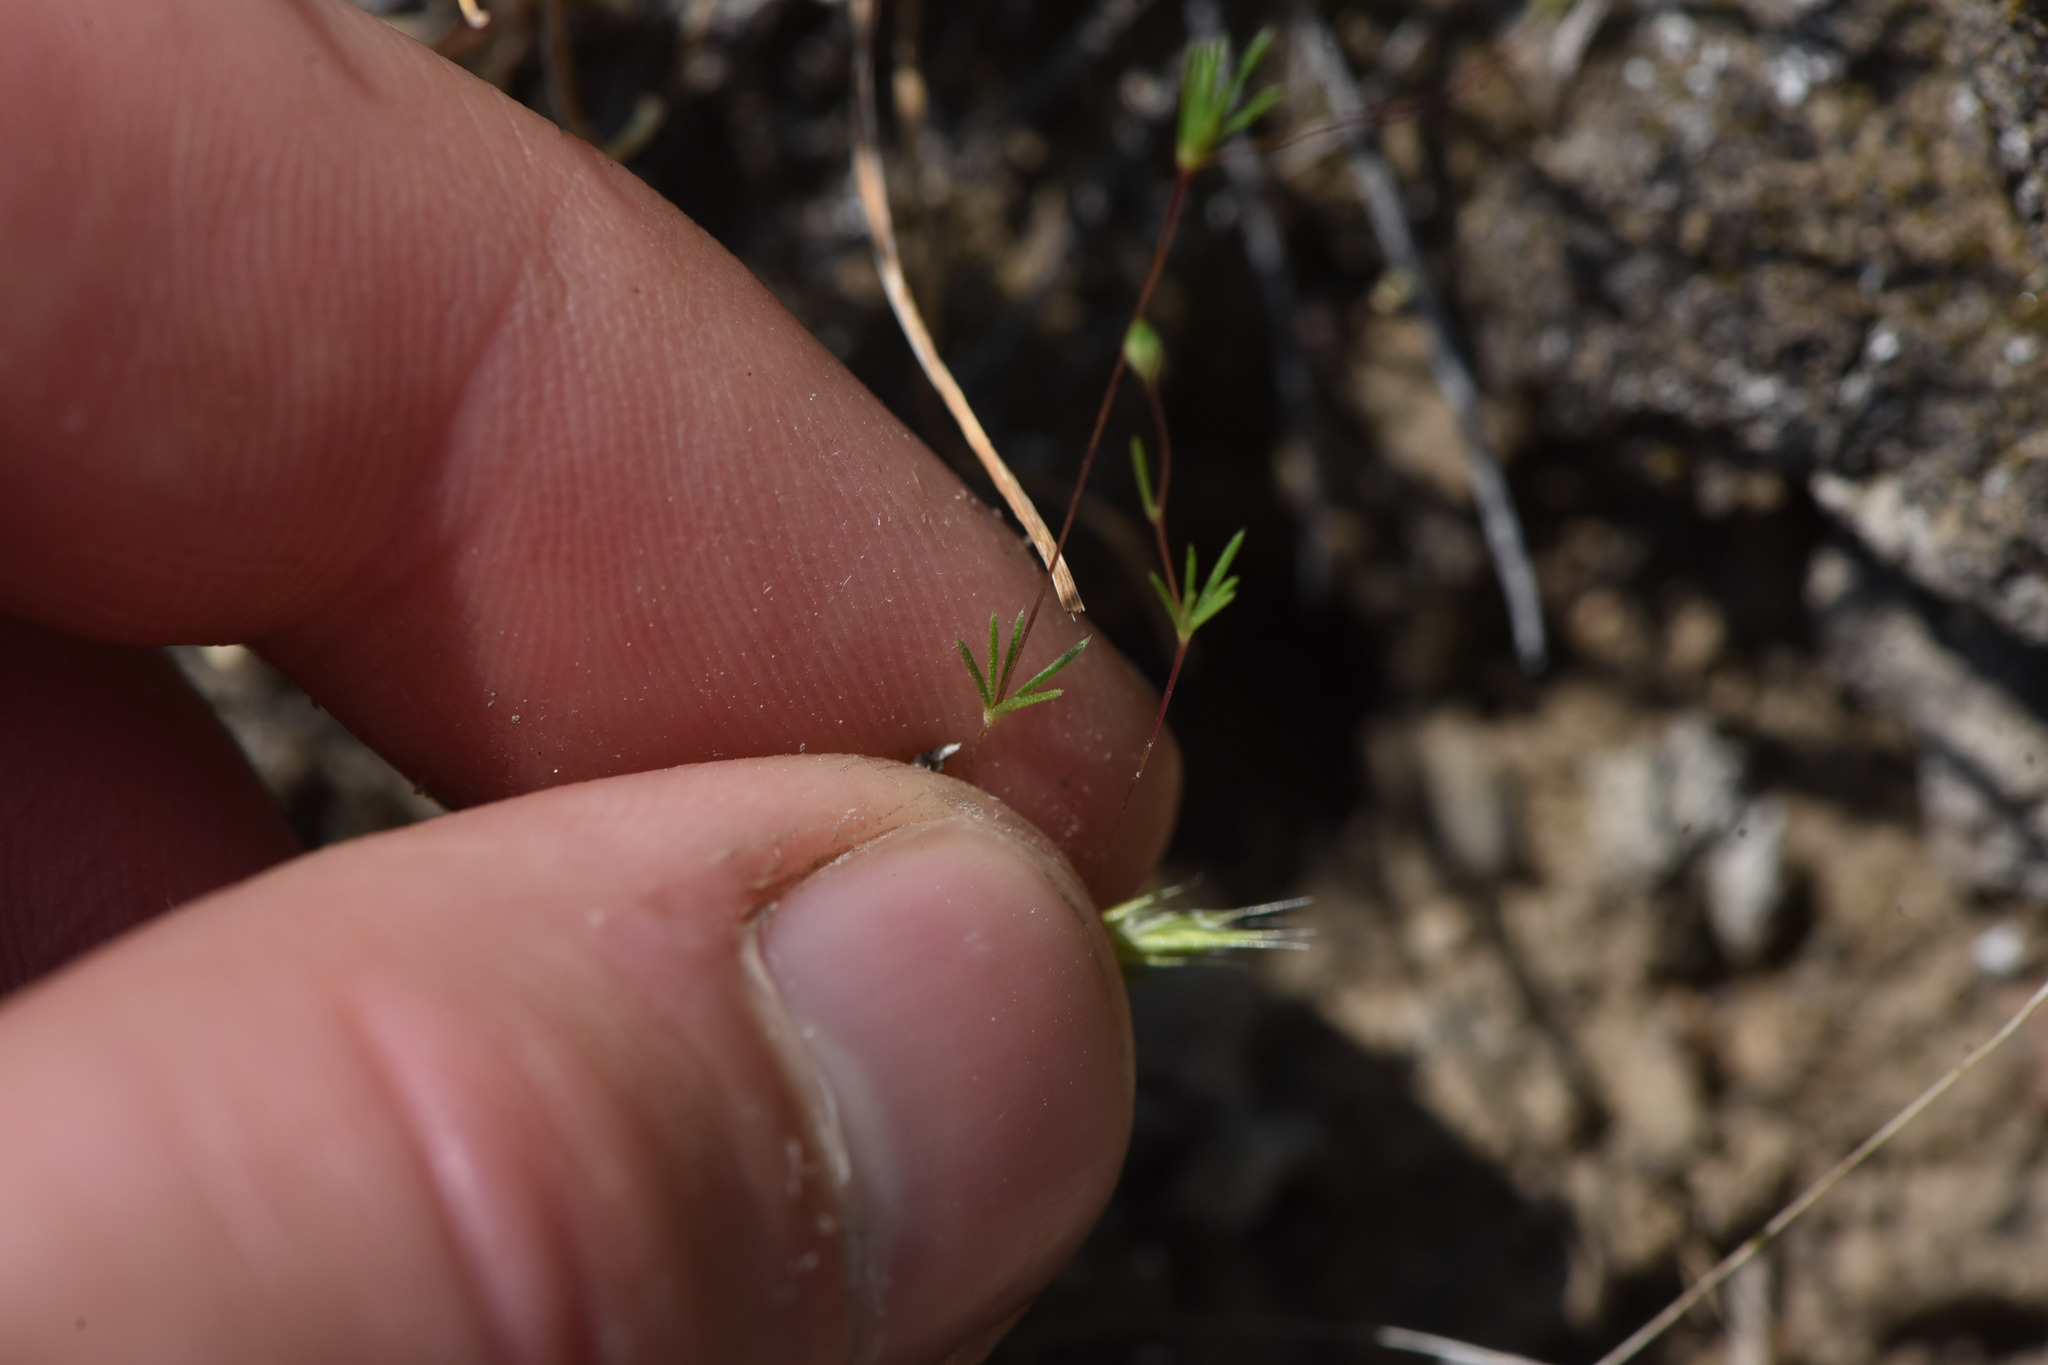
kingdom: Plantae
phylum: Tracheophyta
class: Magnoliopsida
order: Ericales
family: Polemoniaceae
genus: Leptosiphon
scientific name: Leptosiphon septentrionalis
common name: Northern linanthus
